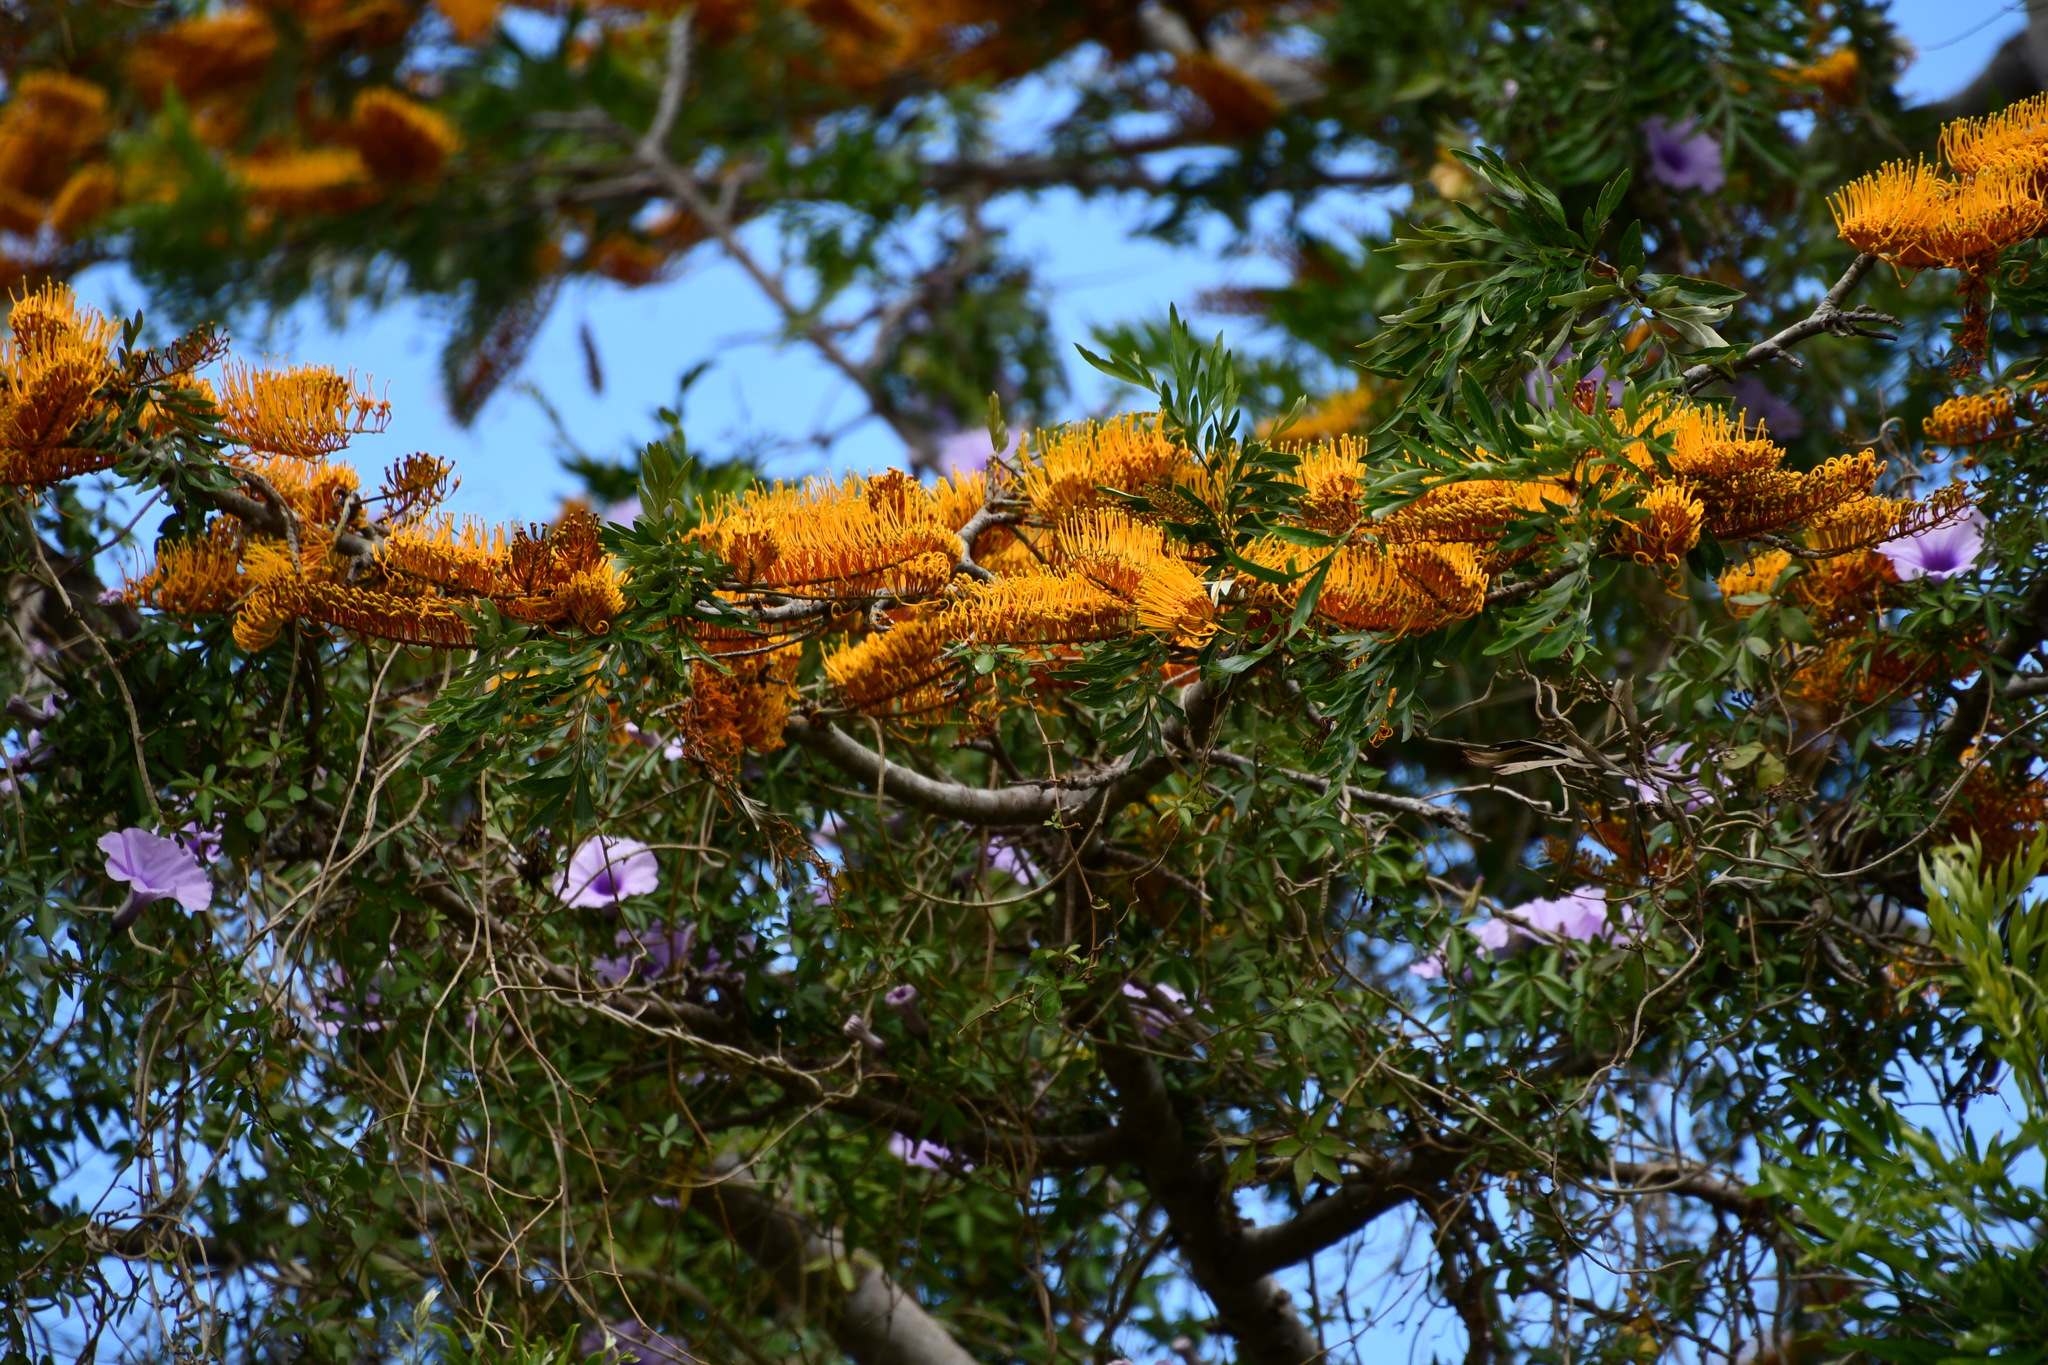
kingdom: Plantae
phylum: Tracheophyta
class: Magnoliopsida
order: Proteales
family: Proteaceae
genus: Grevillea
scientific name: Grevillea robusta
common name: Silkoak
